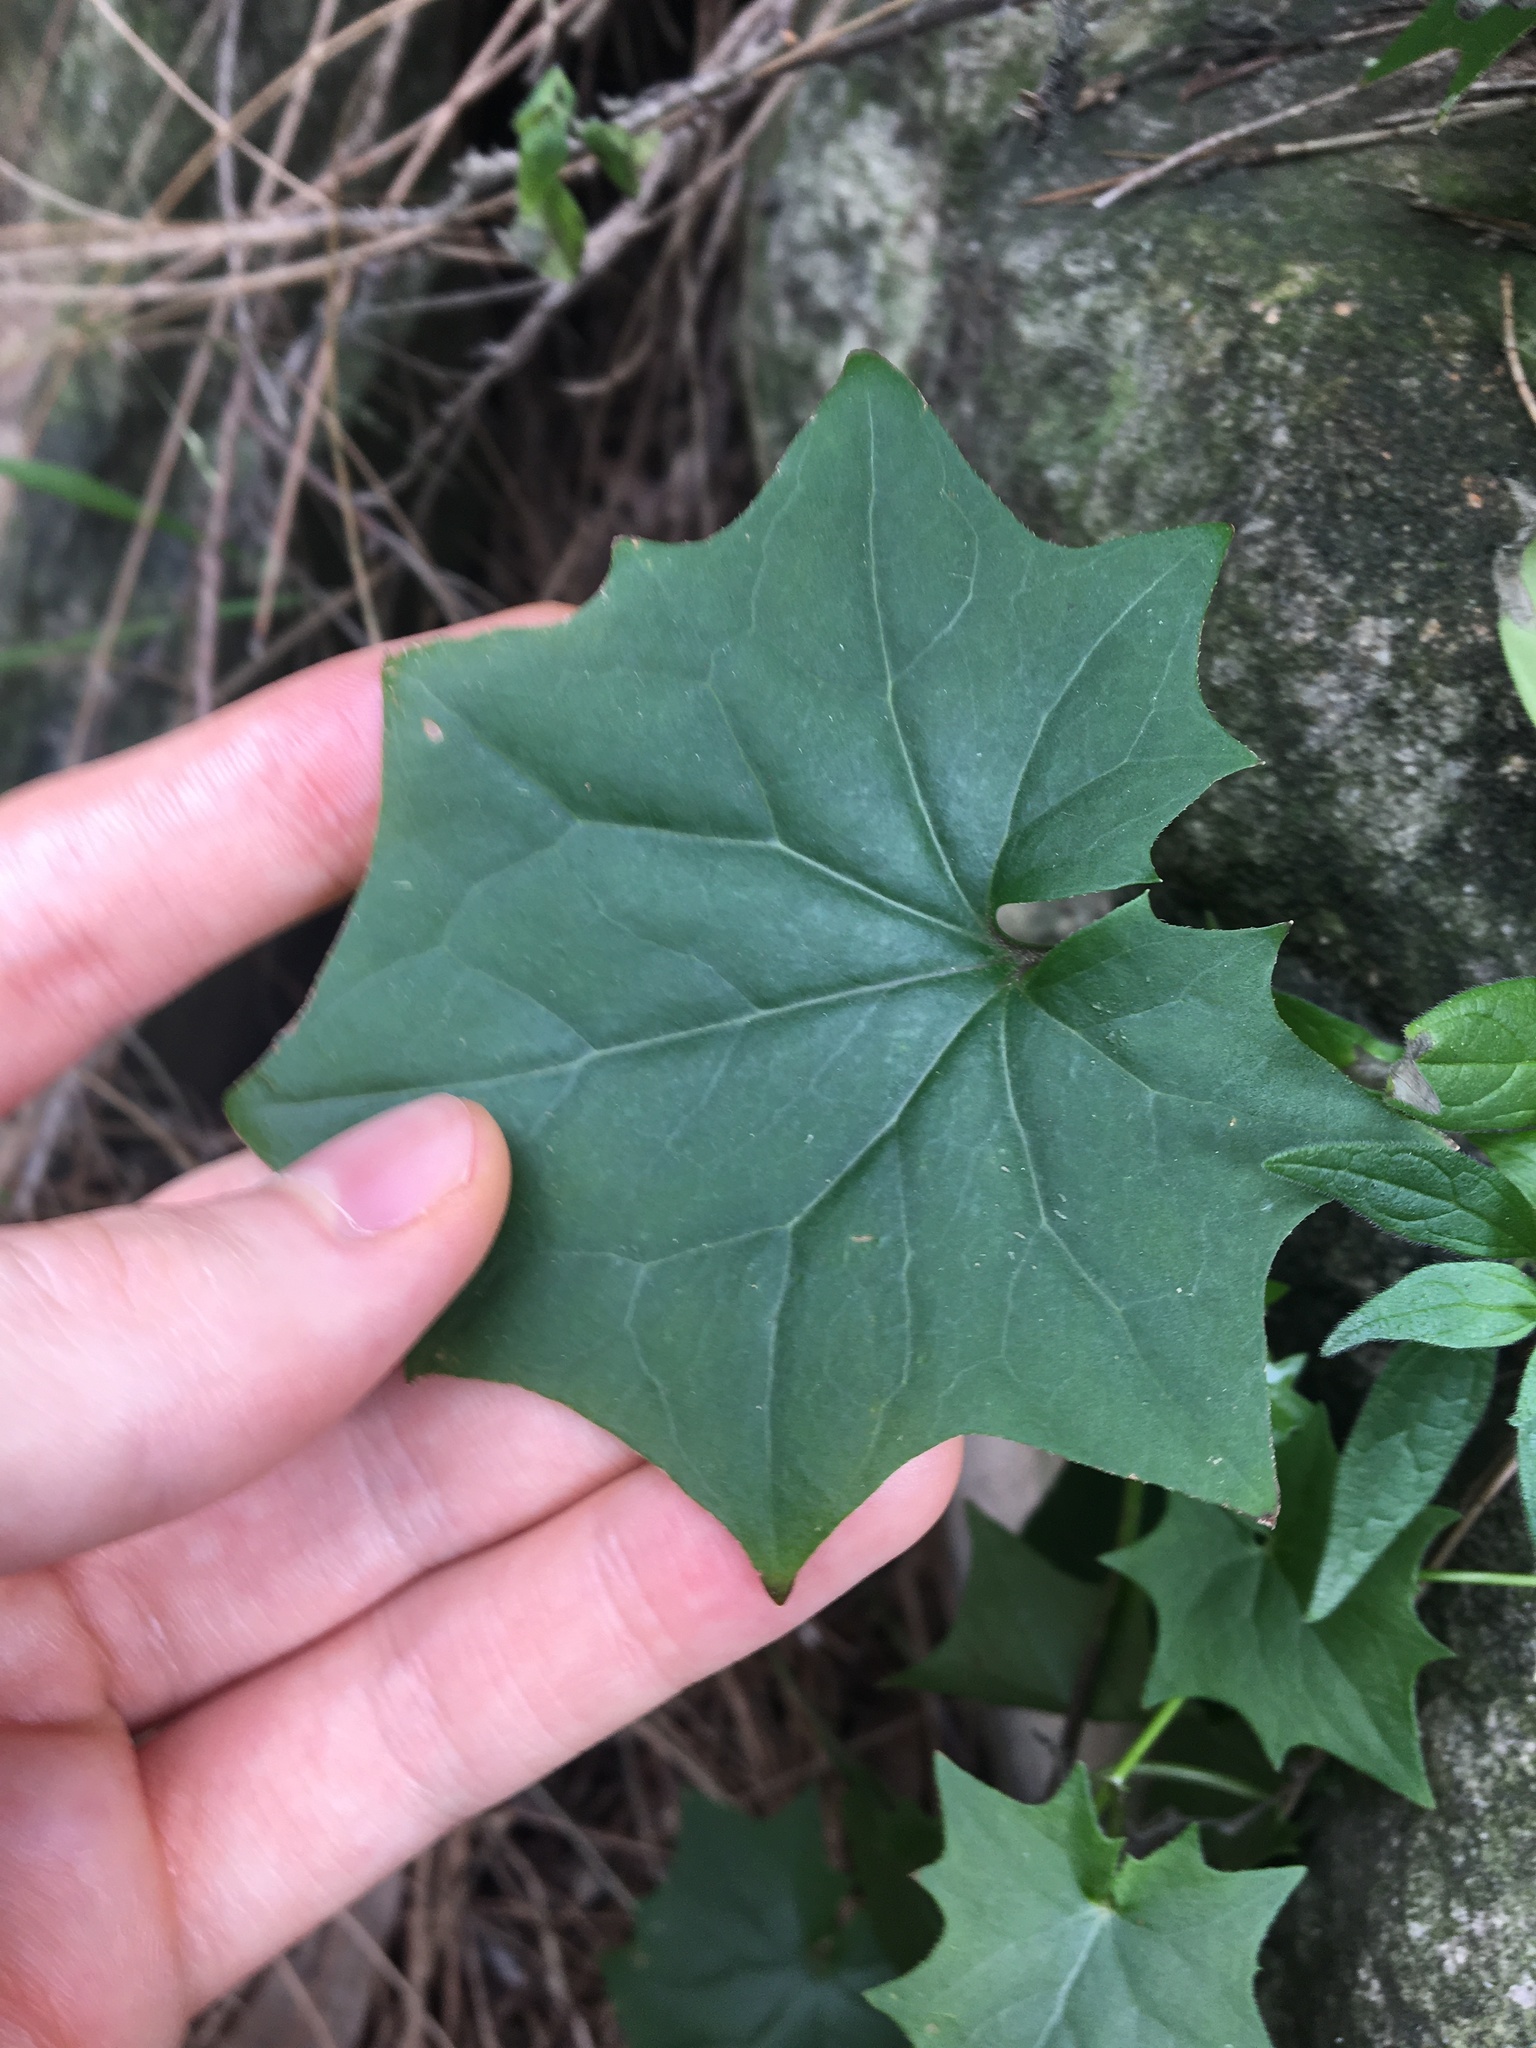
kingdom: Plantae
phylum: Tracheophyta
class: Magnoliopsida
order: Asterales
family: Asteraceae
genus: Delairea
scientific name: Delairea odorata
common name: Cape-ivy
